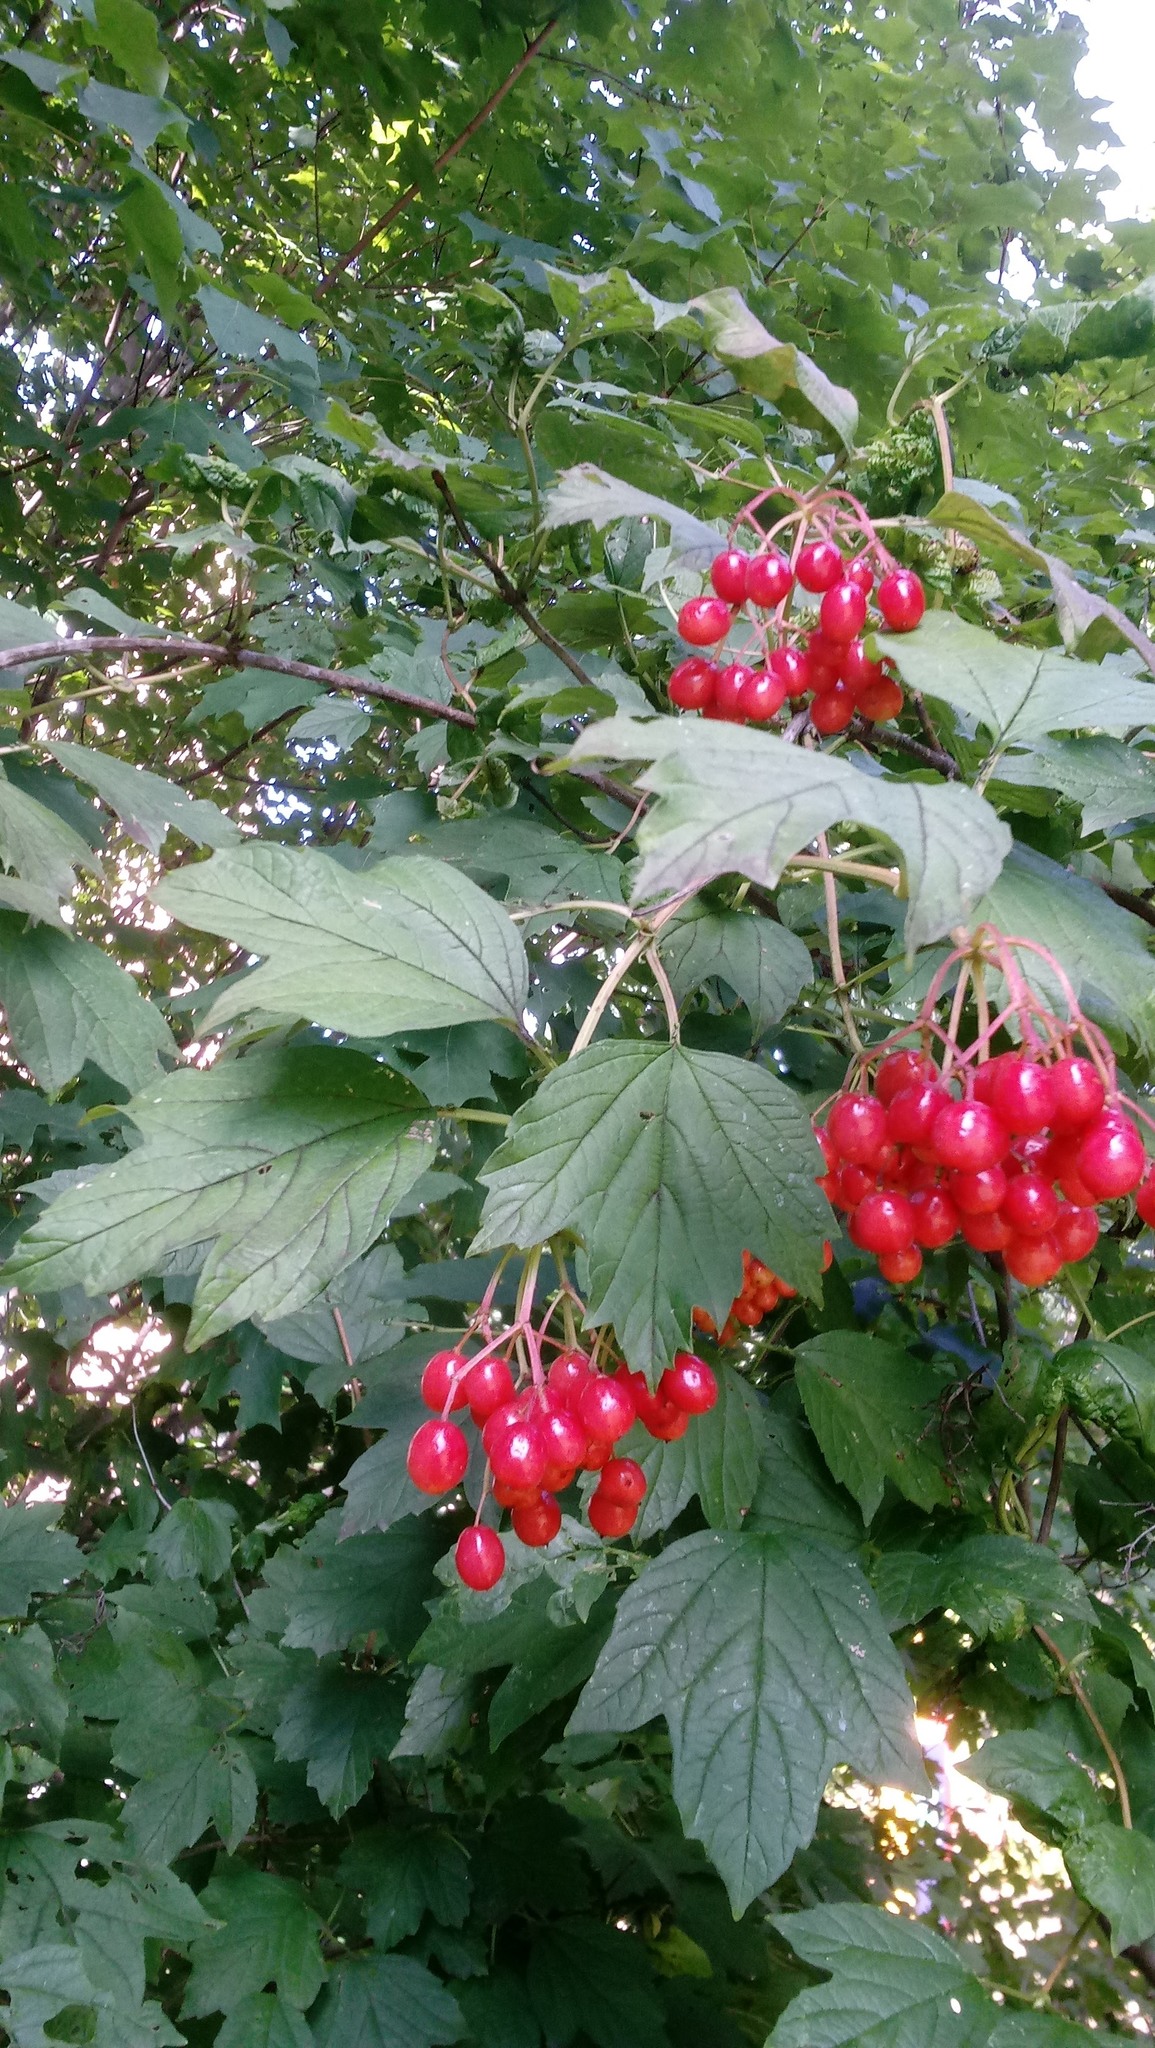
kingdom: Plantae
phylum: Tracheophyta
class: Magnoliopsida
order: Dipsacales
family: Viburnaceae
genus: Viburnum
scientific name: Viburnum opulus
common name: Guelder-rose
